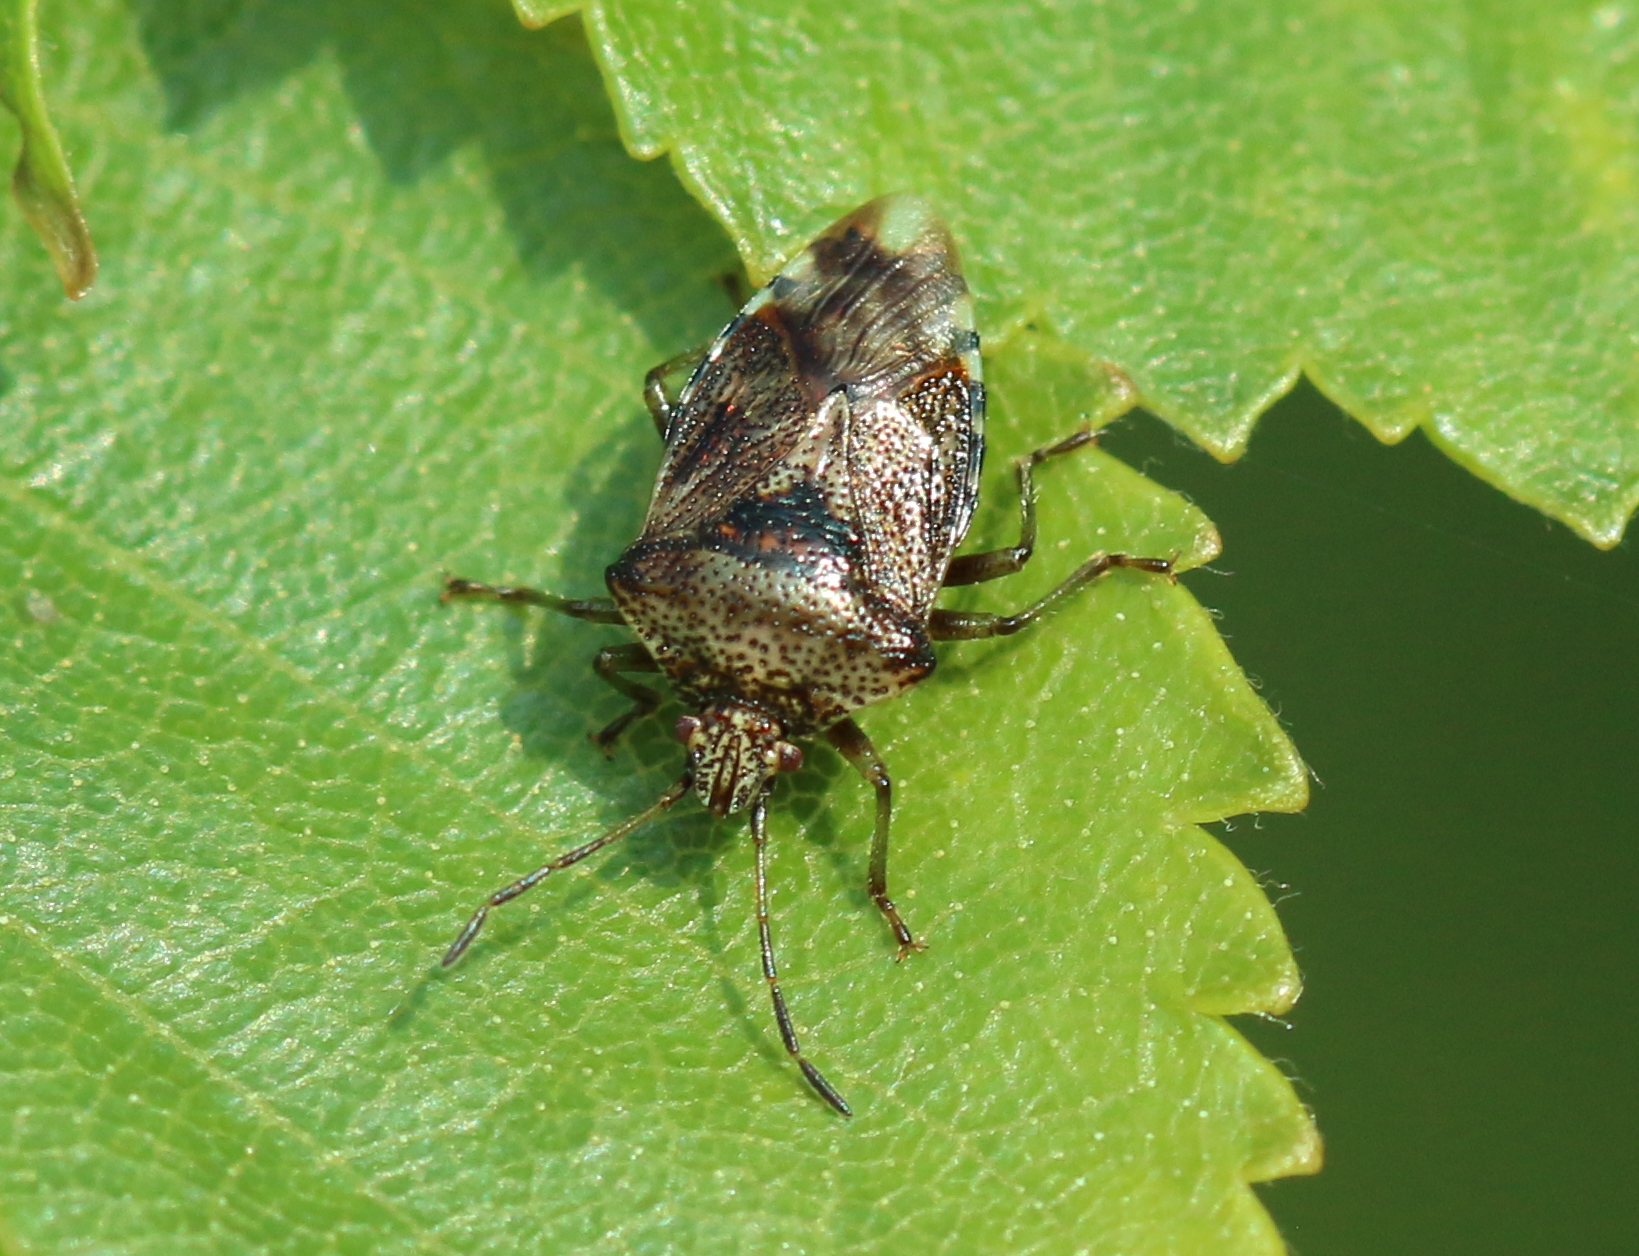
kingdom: Animalia
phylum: Arthropoda
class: Insecta
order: Hemiptera
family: Acanthosomatidae
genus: Elasmucha
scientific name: Elasmucha grisea
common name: Parent bug
